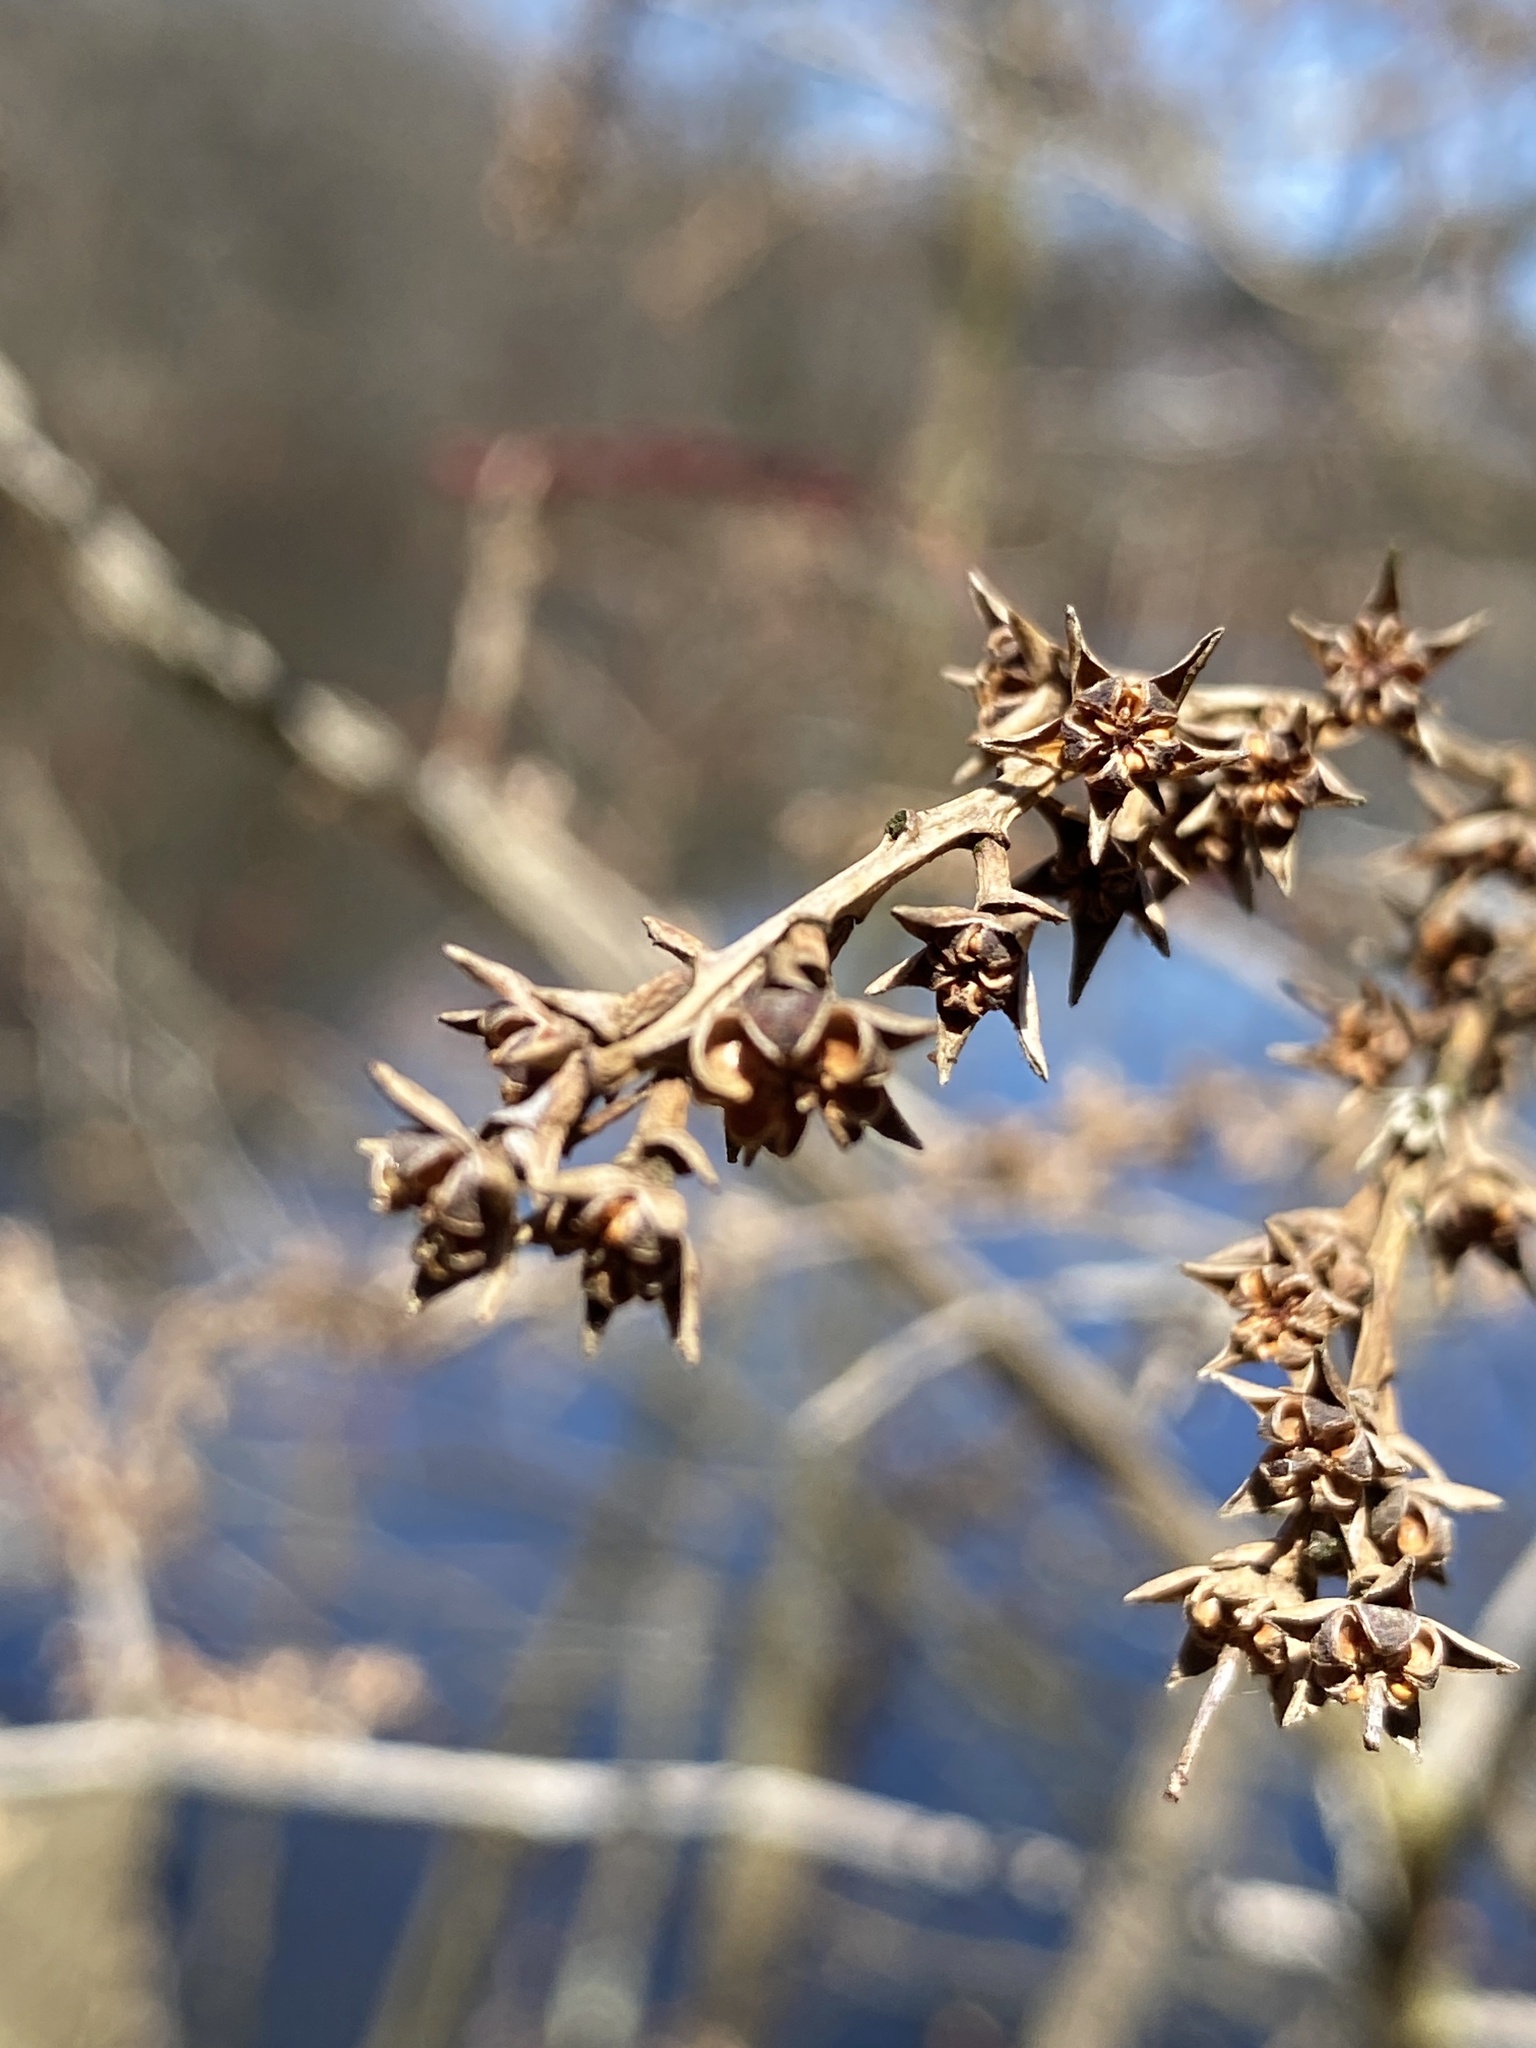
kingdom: Plantae
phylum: Tracheophyta
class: Magnoliopsida
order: Ericales
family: Ericaceae
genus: Eubotrys
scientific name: Eubotrys racemosa
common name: Fetterbush
